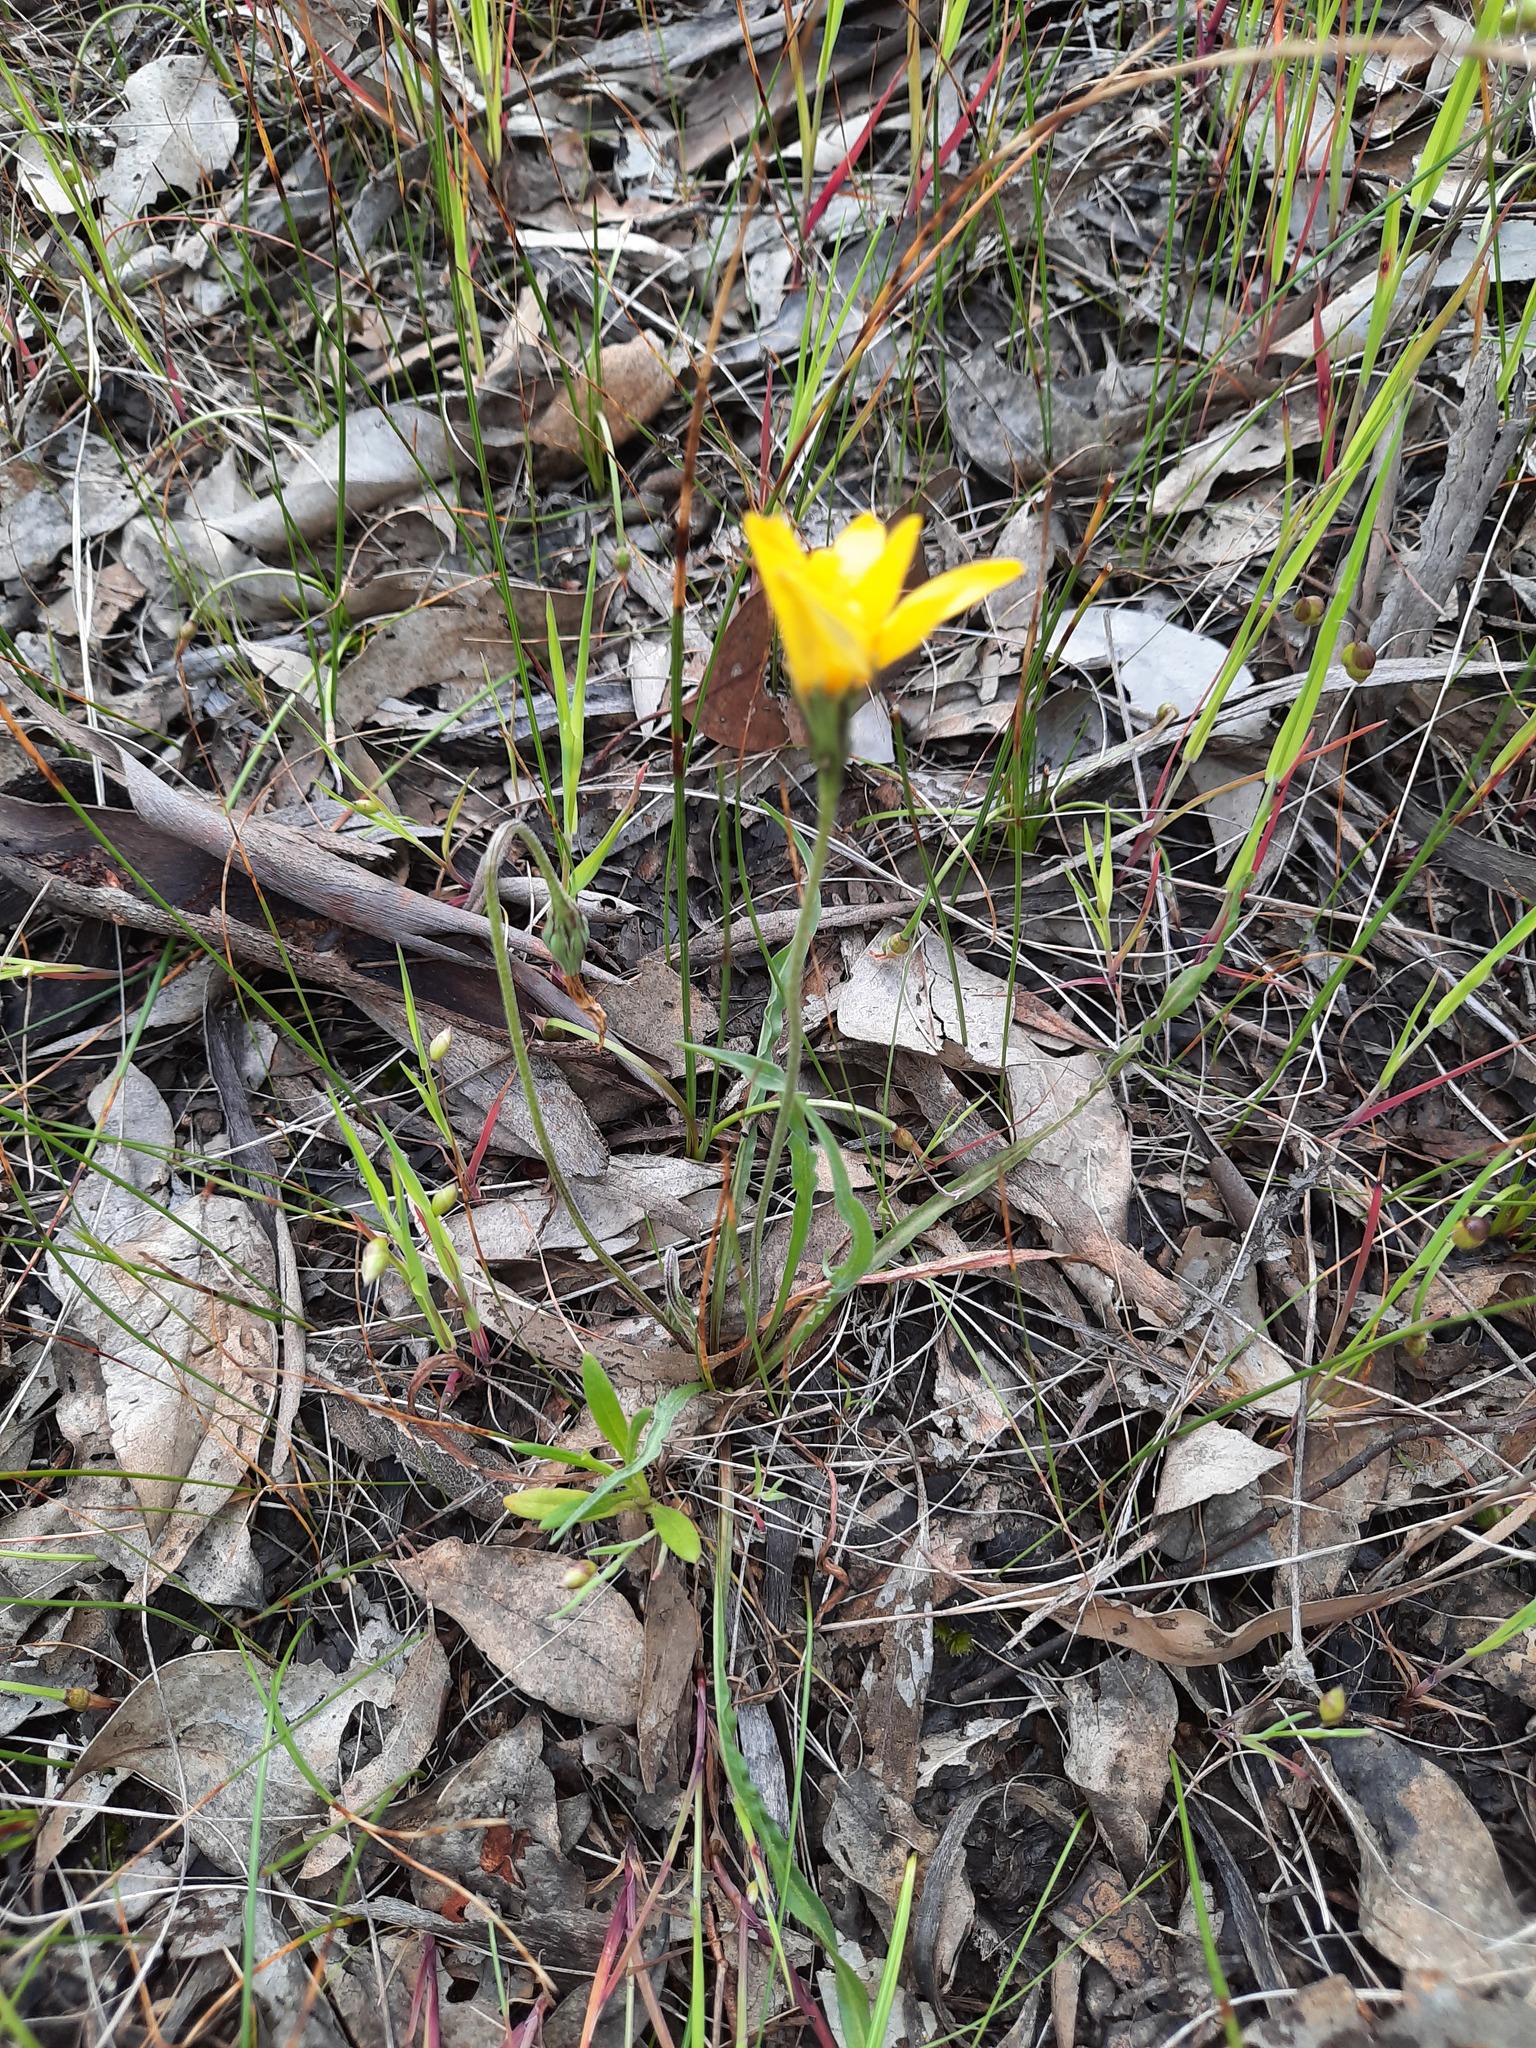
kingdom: Plantae
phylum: Tracheophyta
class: Magnoliopsida
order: Asterales
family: Asteraceae
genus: Microseris
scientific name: Microseris lanceolata
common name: Yam daisy
